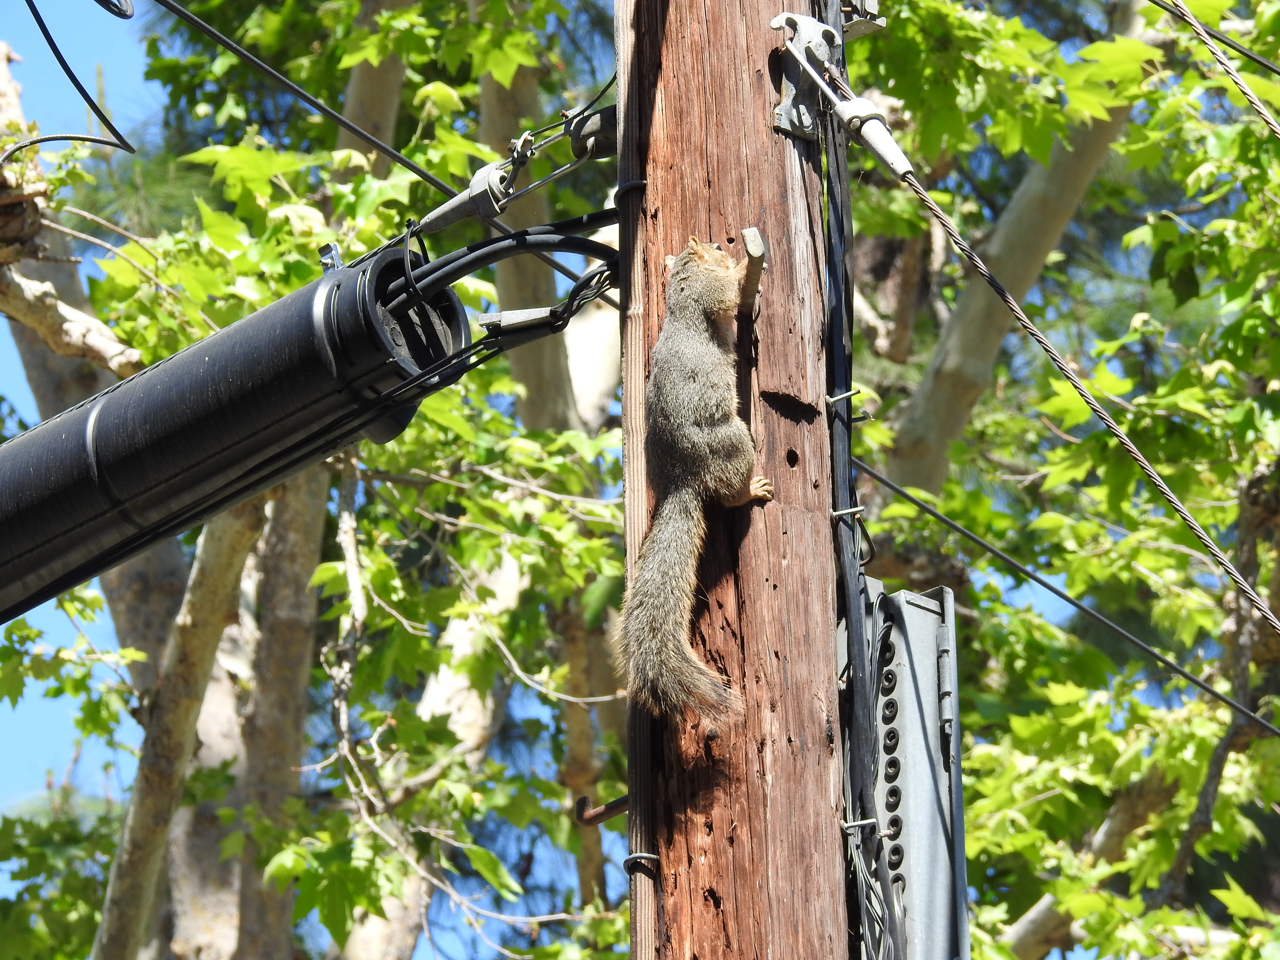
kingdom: Animalia
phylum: Chordata
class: Mammalia
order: Rodentia
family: Sciuridae
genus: Sciurus
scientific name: Sciurus niger
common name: Fox squirrel
